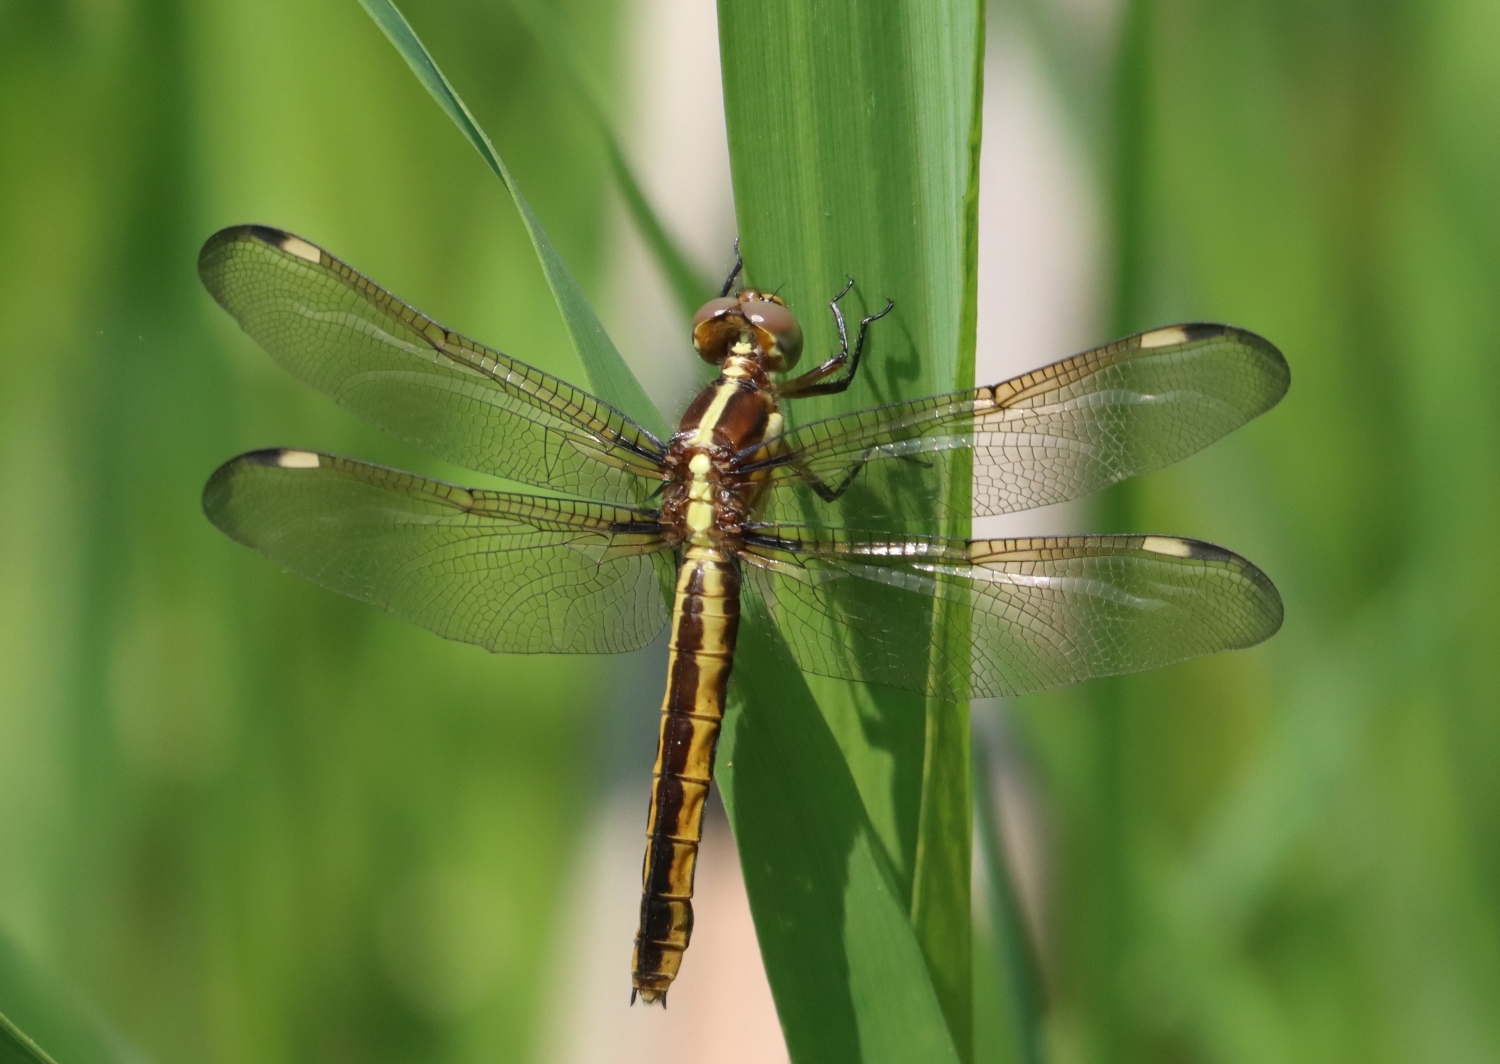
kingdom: Animalia
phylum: Arthropoda
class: Insecta
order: Odonata
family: Libellulidae
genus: Libellula
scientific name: Libellula cyanea
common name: Spangled skimmer
